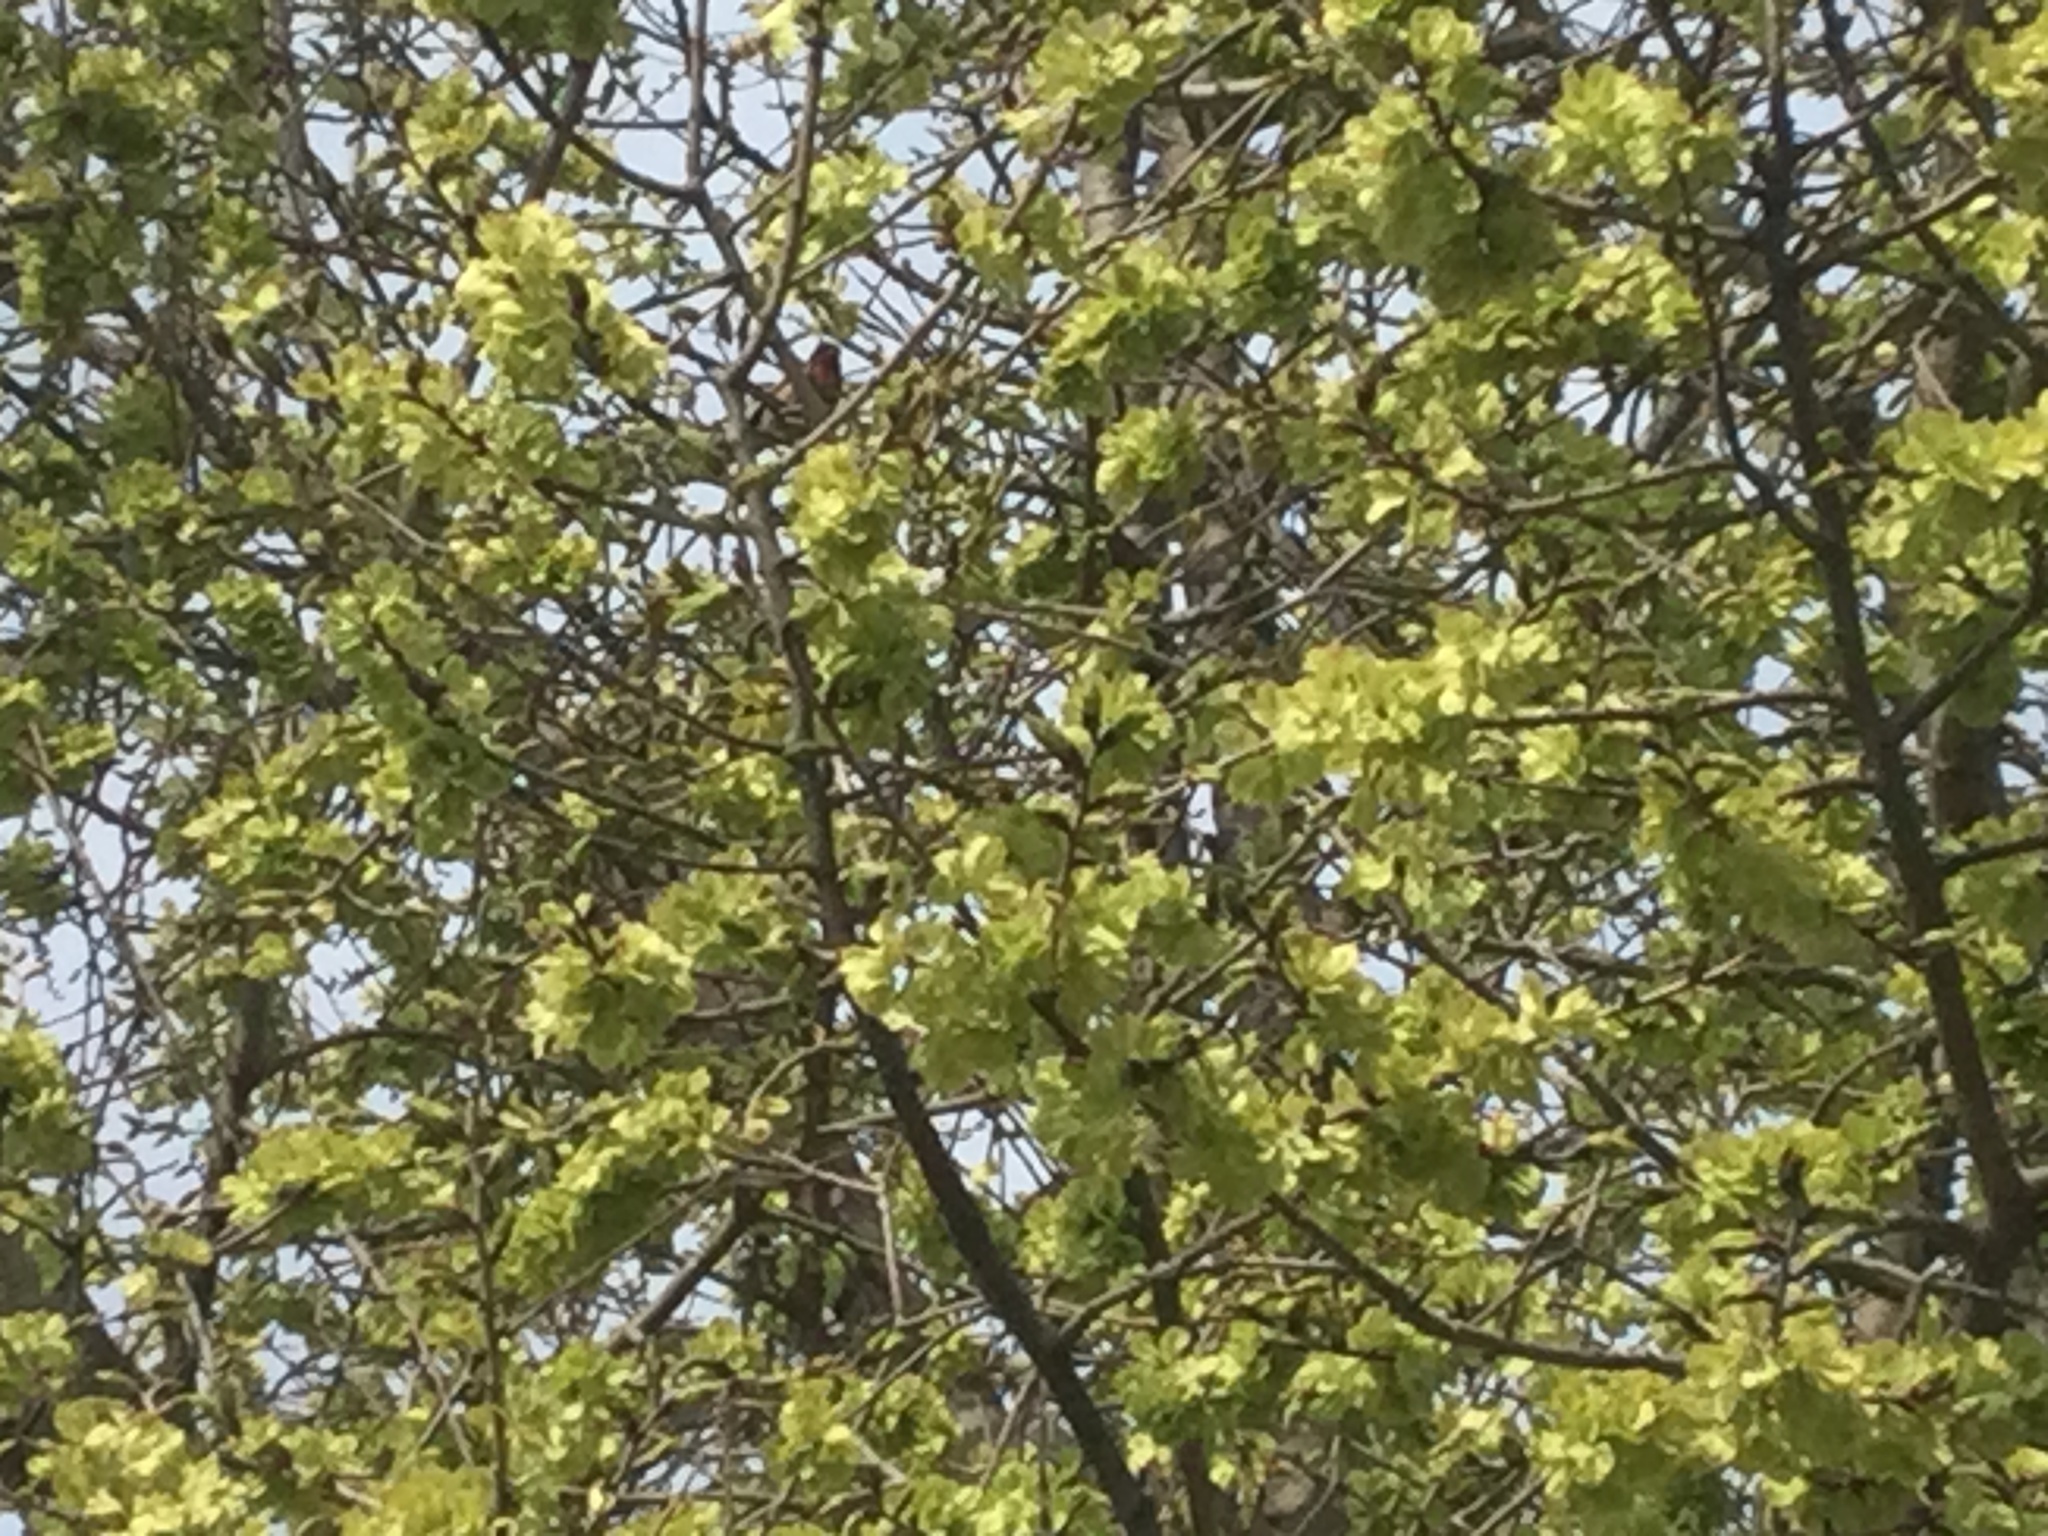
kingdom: Animalia
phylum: Chordata
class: Aves
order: Passeriformes
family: Fringillidae
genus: Haemorhous
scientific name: Haemorhous mexicanus
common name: House finch
